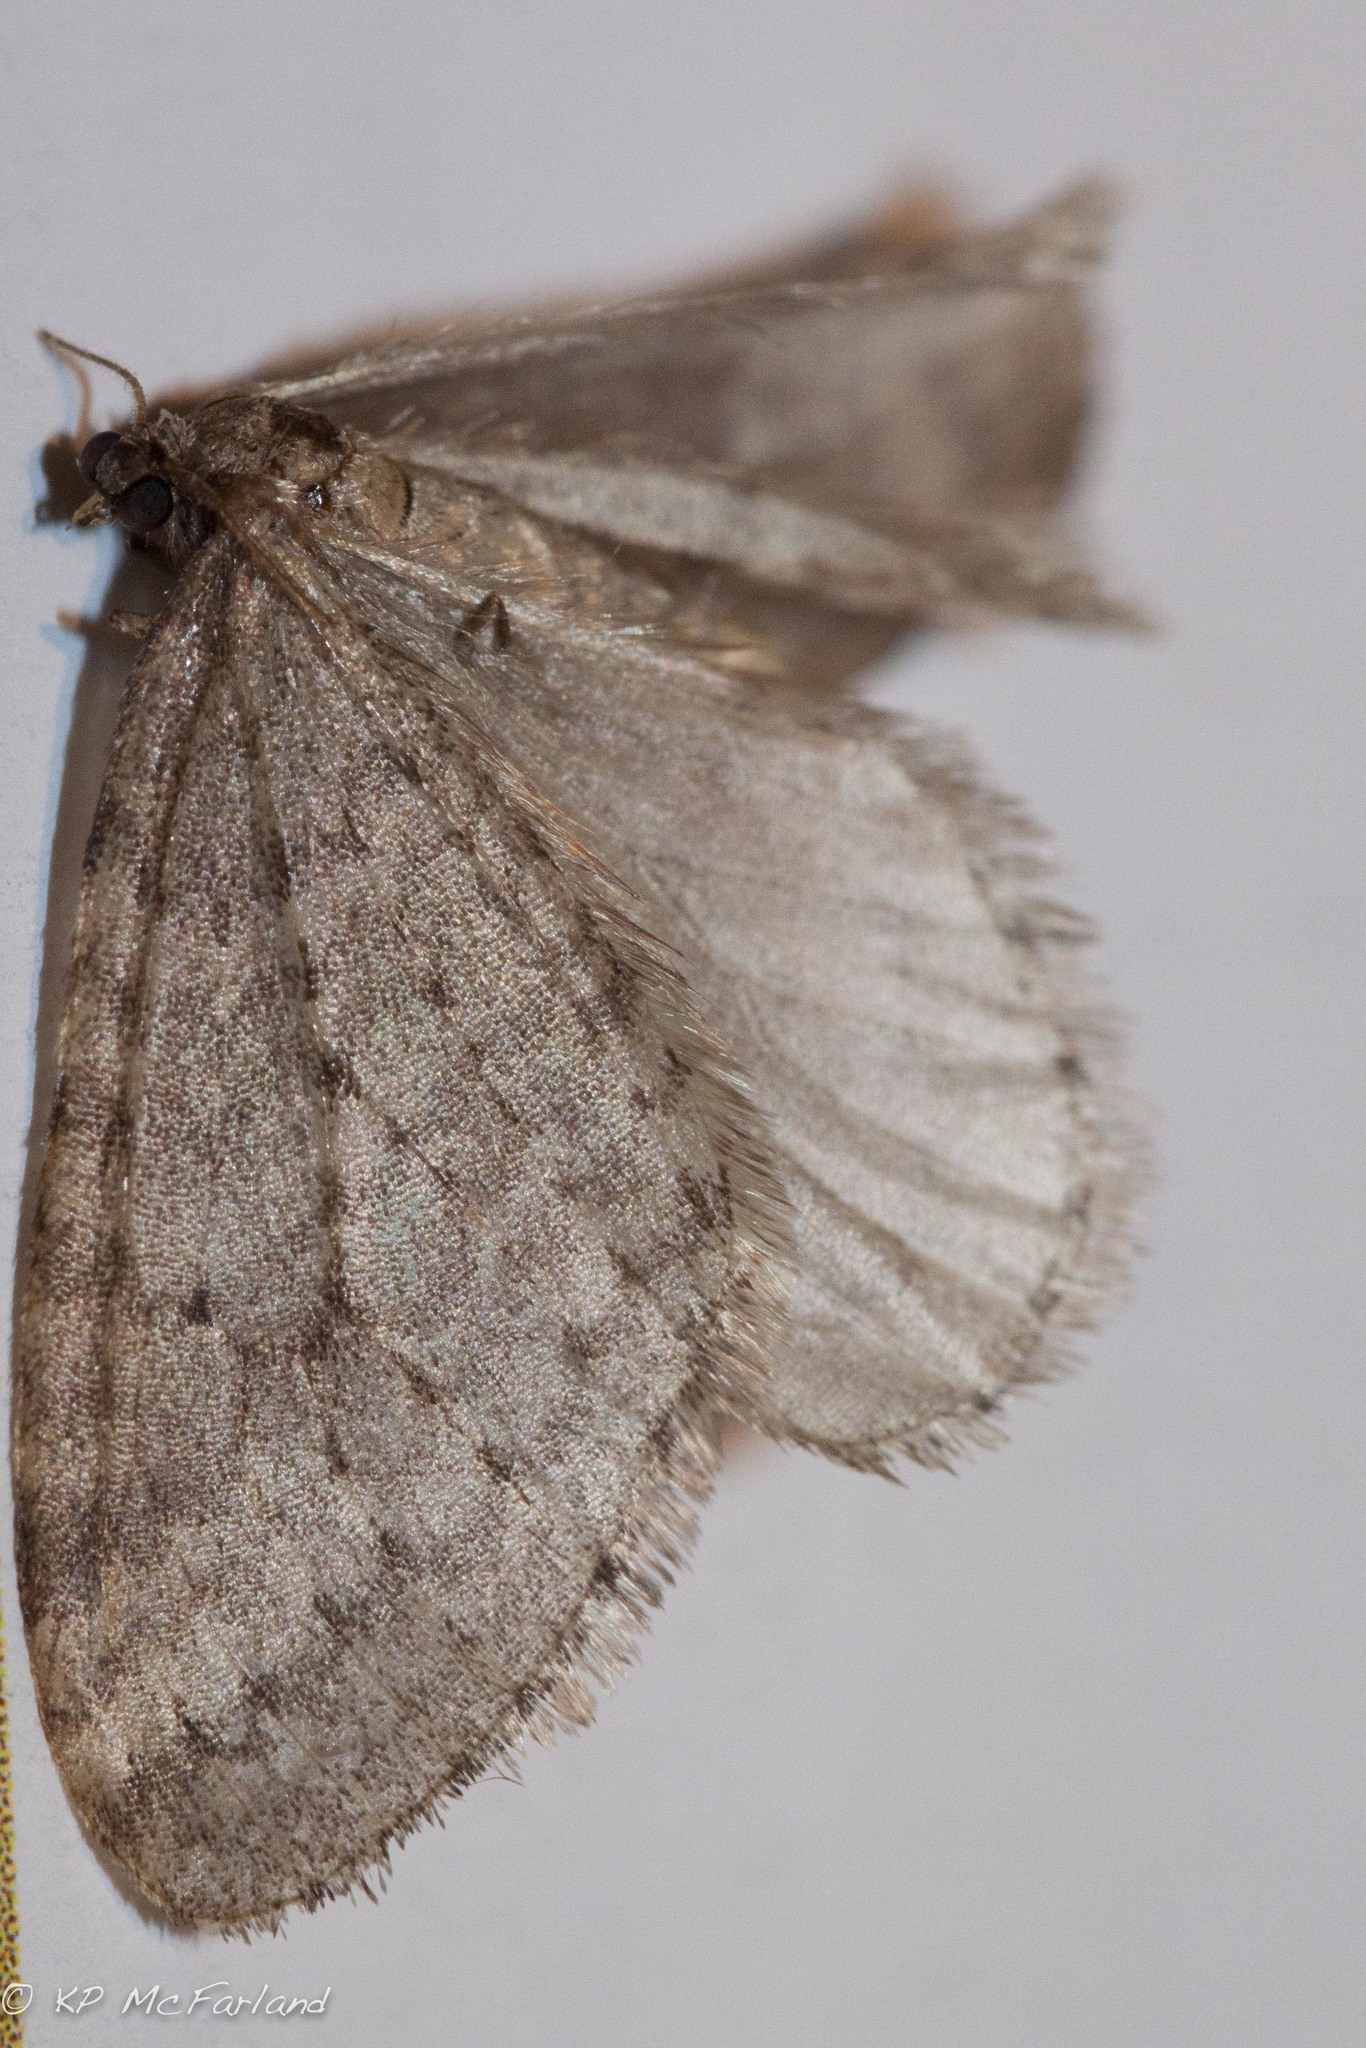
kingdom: Animalia
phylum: Arthropoda
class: Insecta
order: Lepidoptera
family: Geometridae
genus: Operophtera
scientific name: Operophtera bruceata
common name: Bruce spanworm
